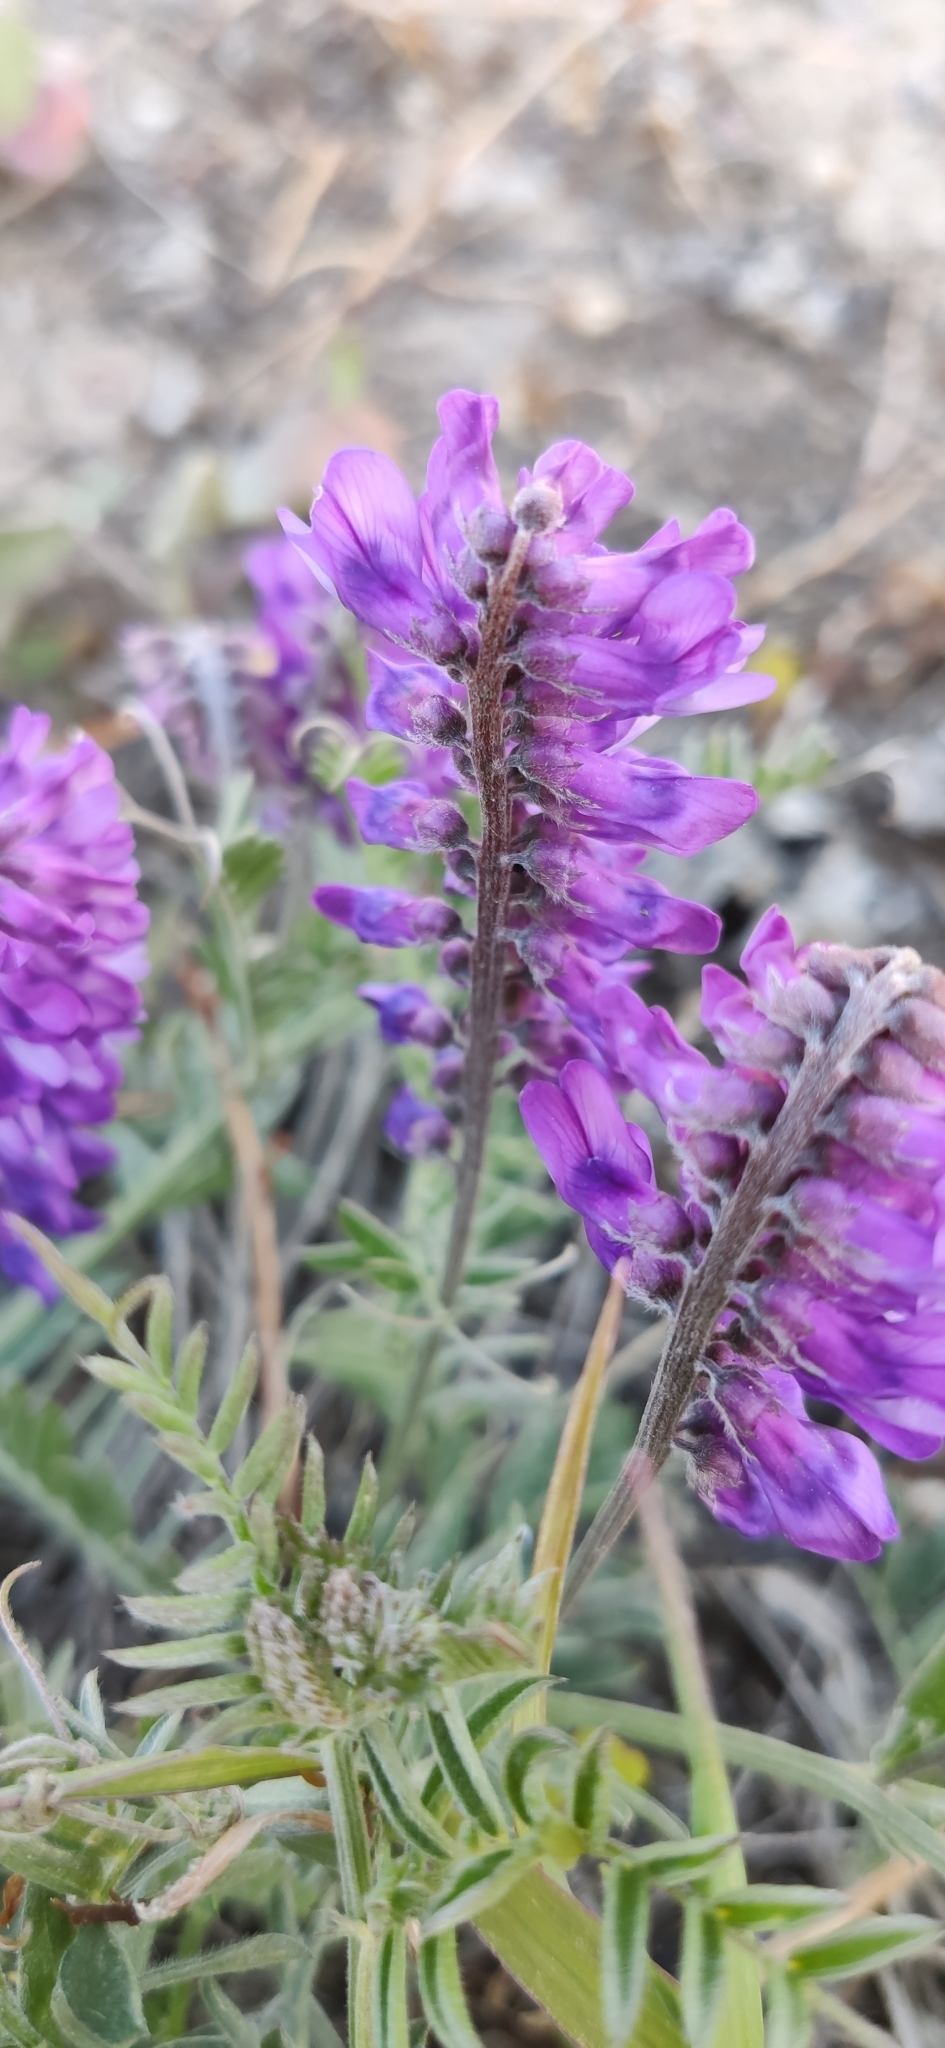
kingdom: Plantae
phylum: Tracheophyta
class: Magnoliopsida
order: Fabales
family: Fabaceae
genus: Vicia
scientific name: Vicia cracca
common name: Bird vetch
